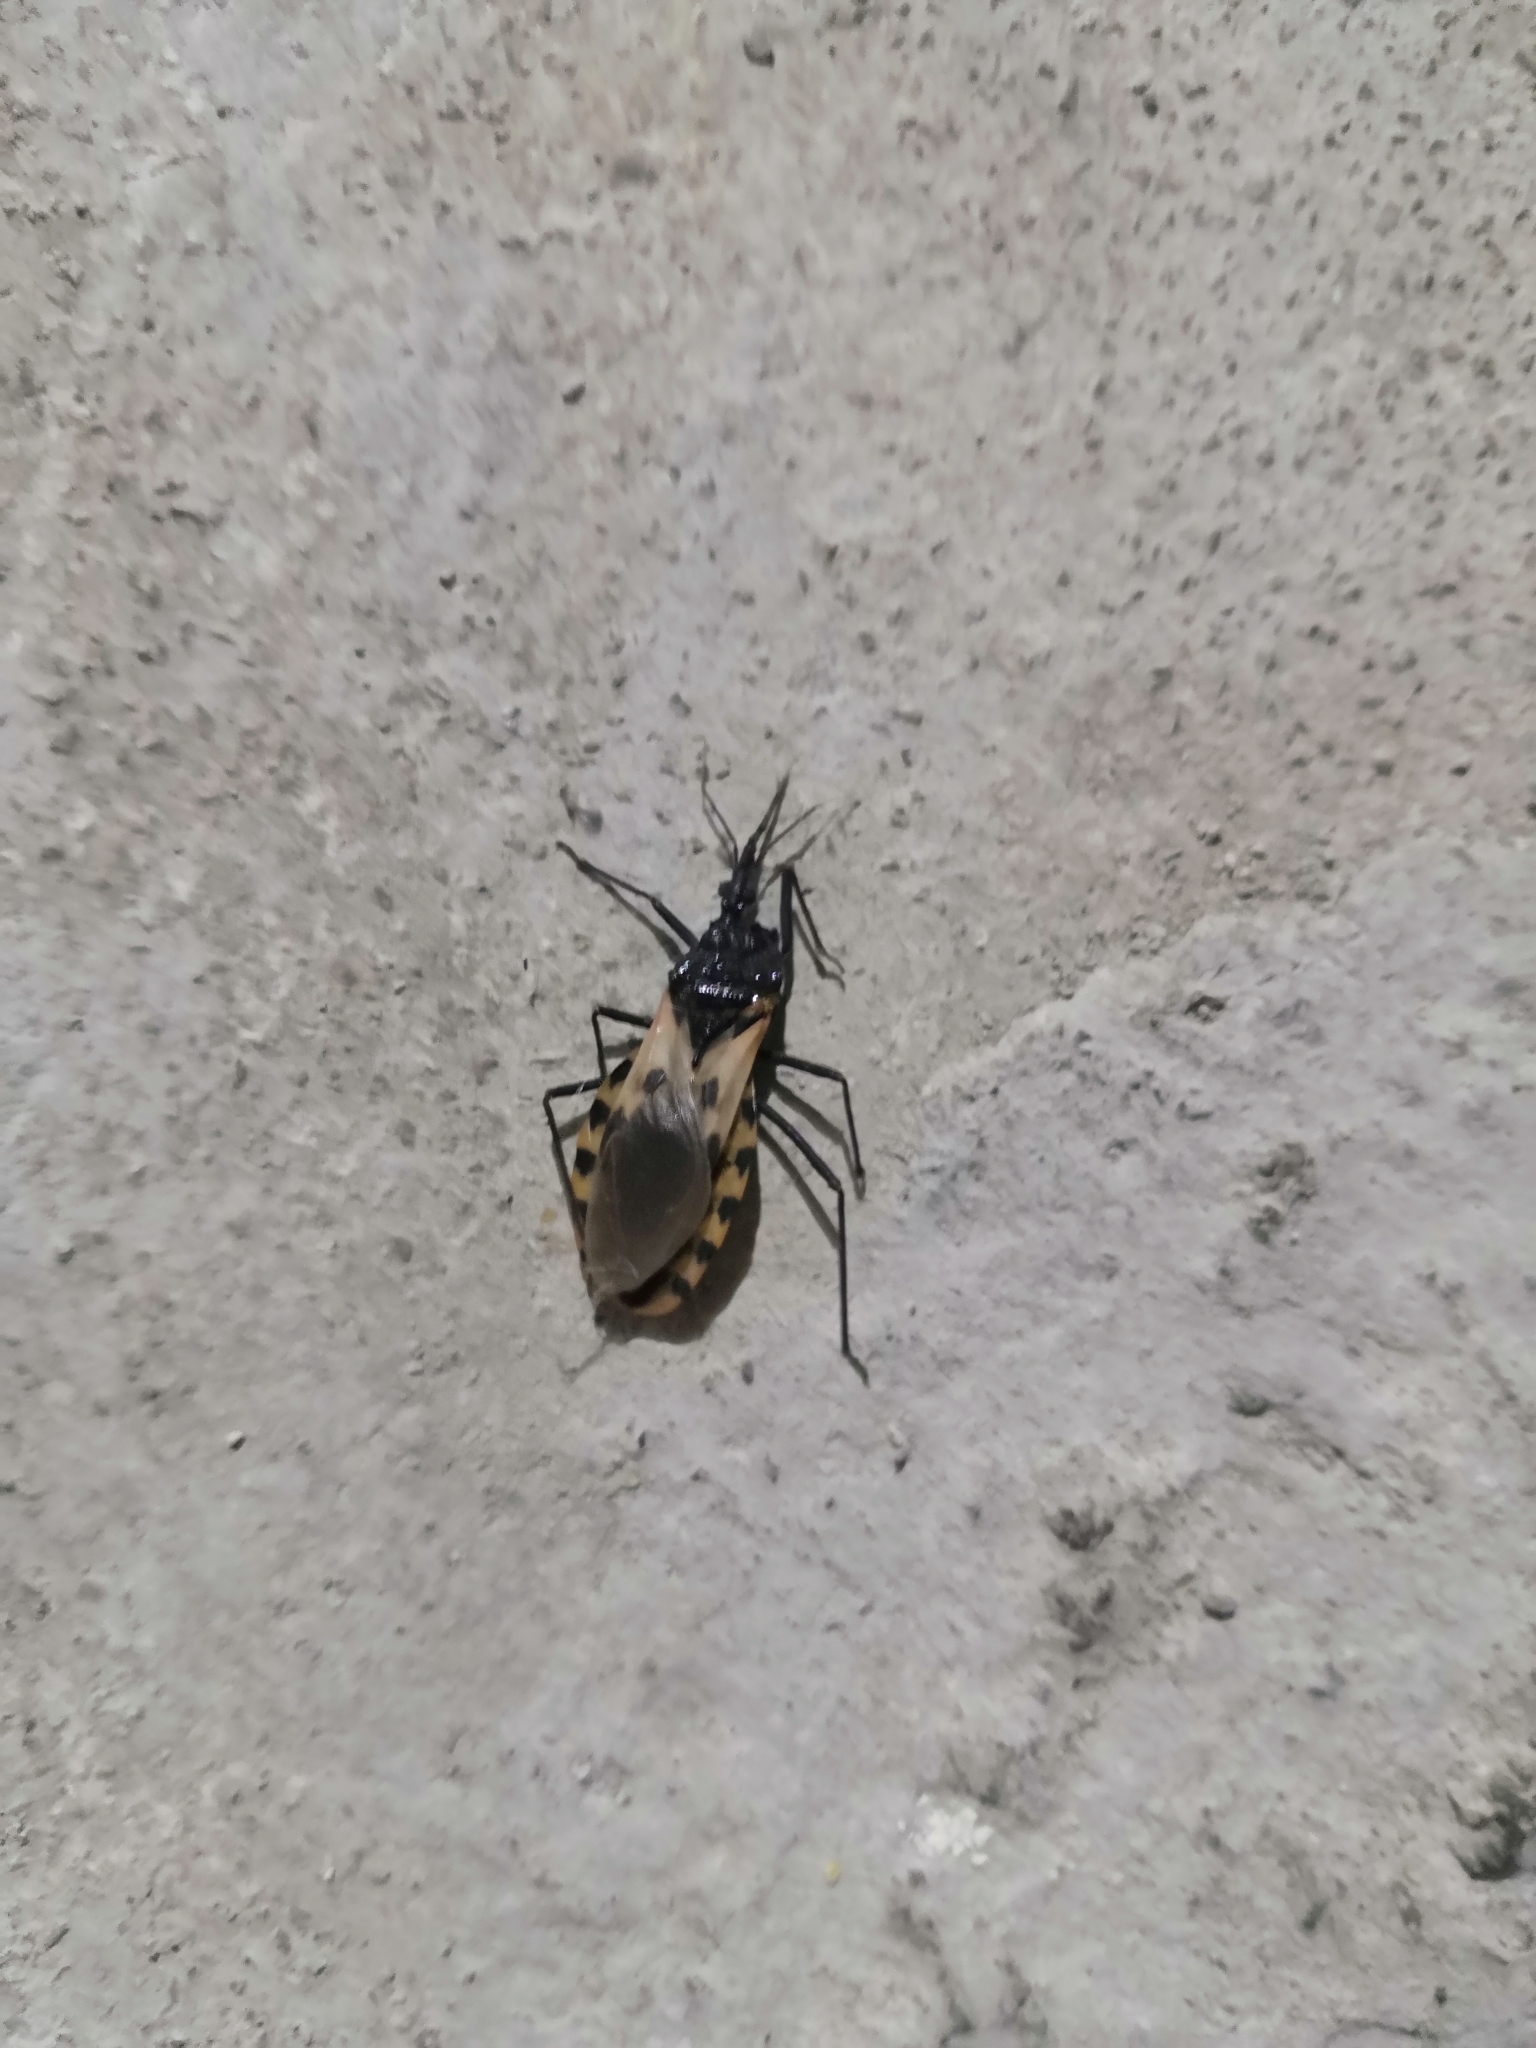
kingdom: Animalia
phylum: Arthropoda
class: Insecta
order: Hemiptera
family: Reduviidae
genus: Meccus
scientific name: Meccus dimidiatus
